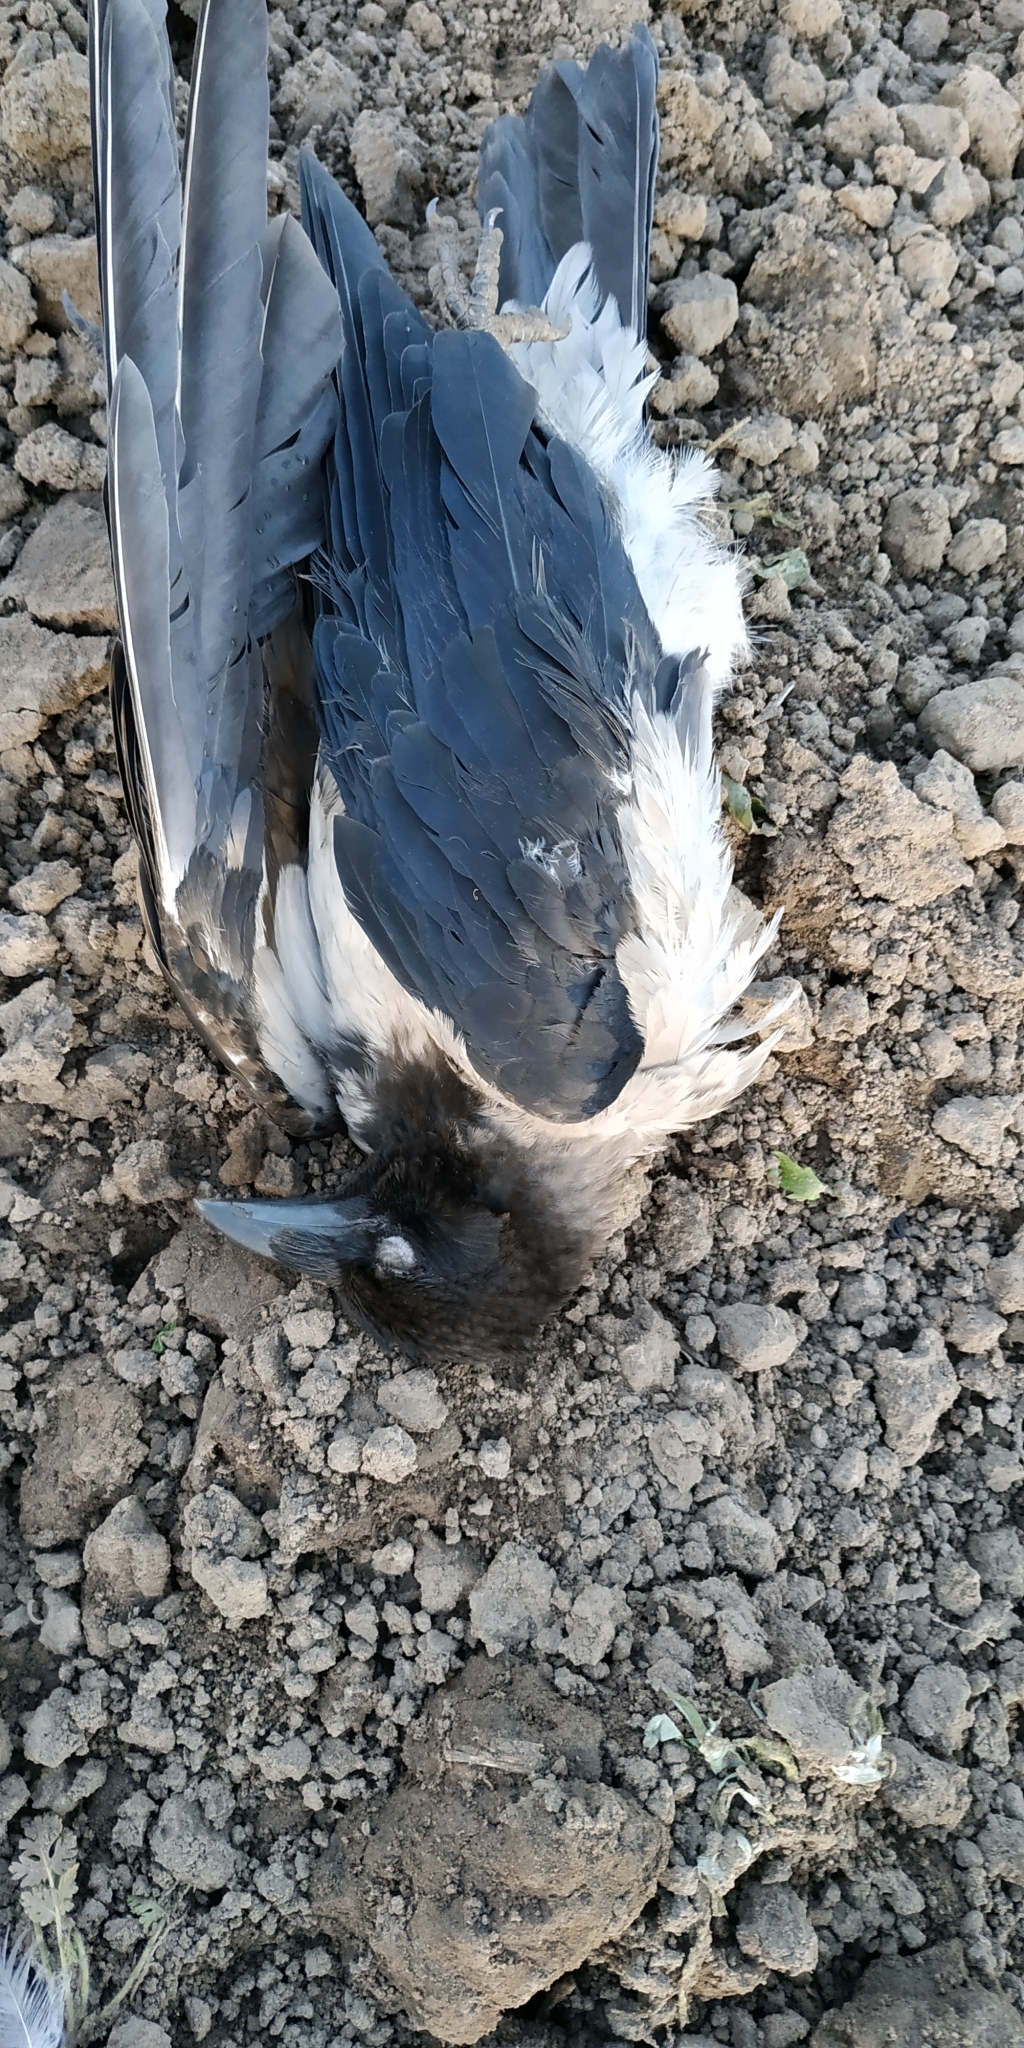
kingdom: Animalia
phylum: Chordata
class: Aves
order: Passeriformes
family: Corvidae
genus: Corvus
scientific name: Corvus cornix
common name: Hooded crow
